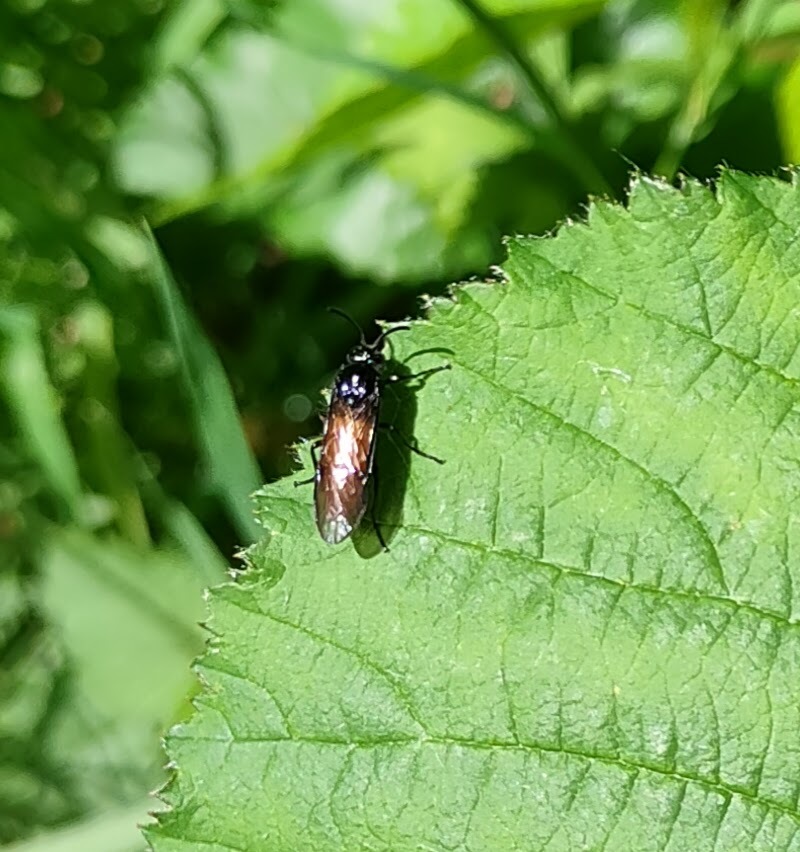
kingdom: Animalia
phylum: Arthropoda
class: Insecta
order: Hymenoptera
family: Argidae
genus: Arge
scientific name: Arge pagana
